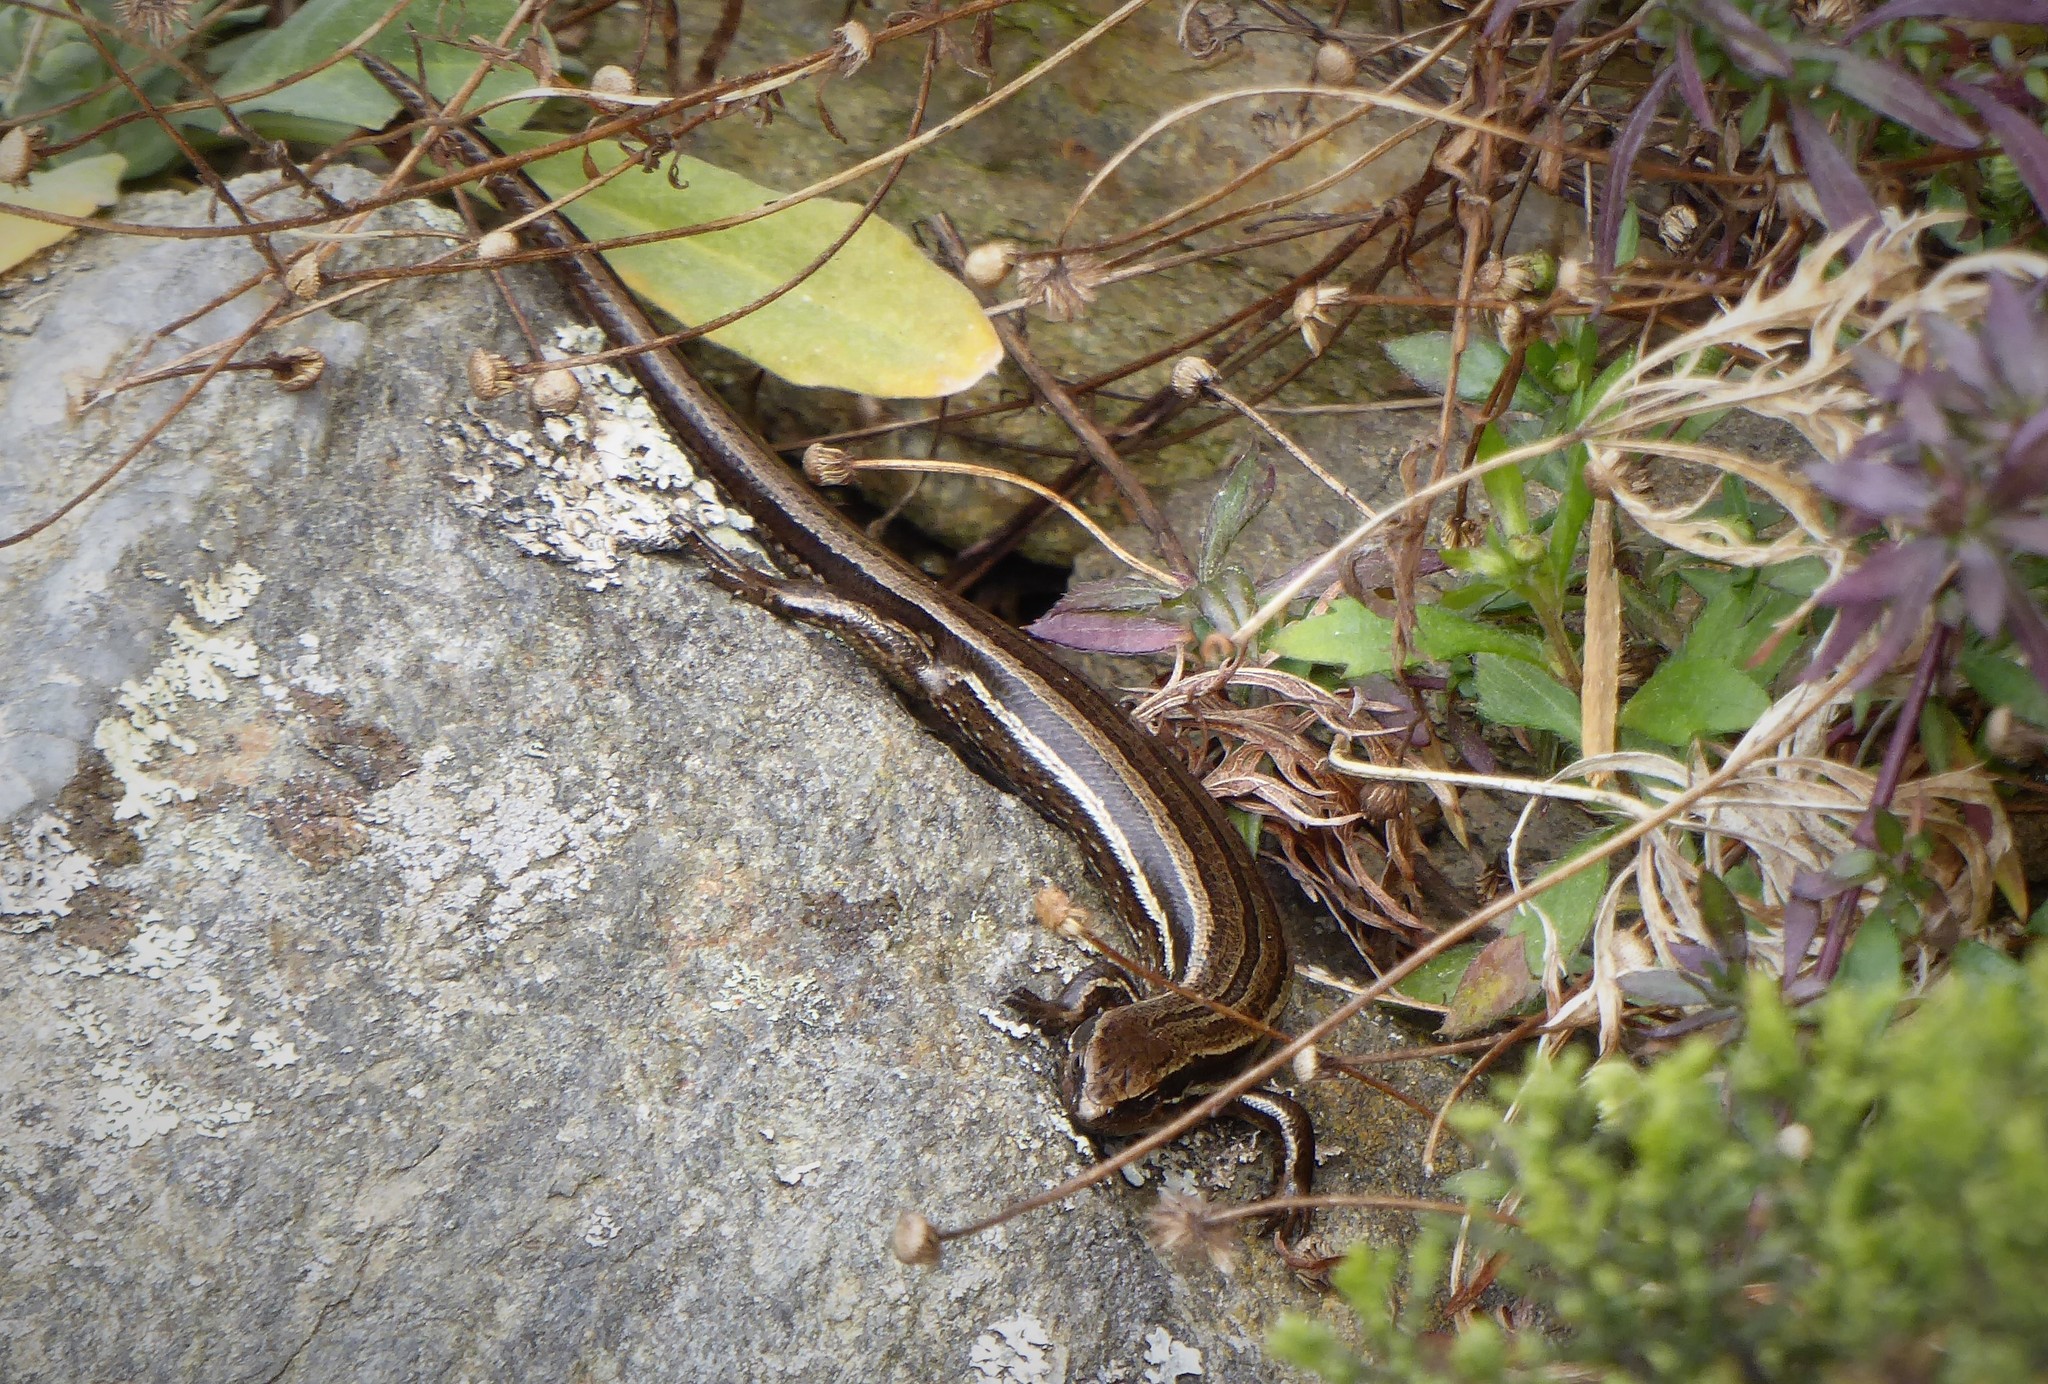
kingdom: Animalia
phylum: Chordata
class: Squamata
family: Scincidae
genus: Oligosoma
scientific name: Oligosoma polychroma
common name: Common new zealand skink
